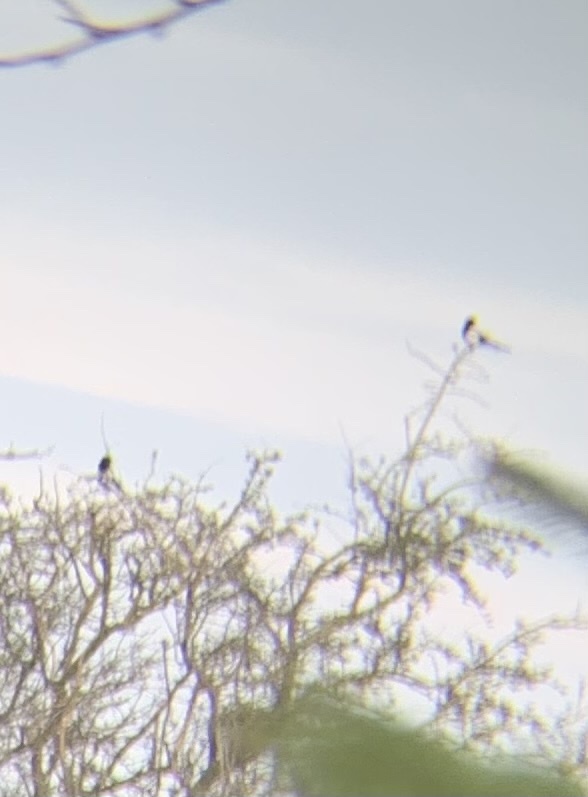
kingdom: Animalia
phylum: Chordata
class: Aves
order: Passeriformes
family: Corvidae
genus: Pica
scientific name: Pica pica
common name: Eurasian magpie
